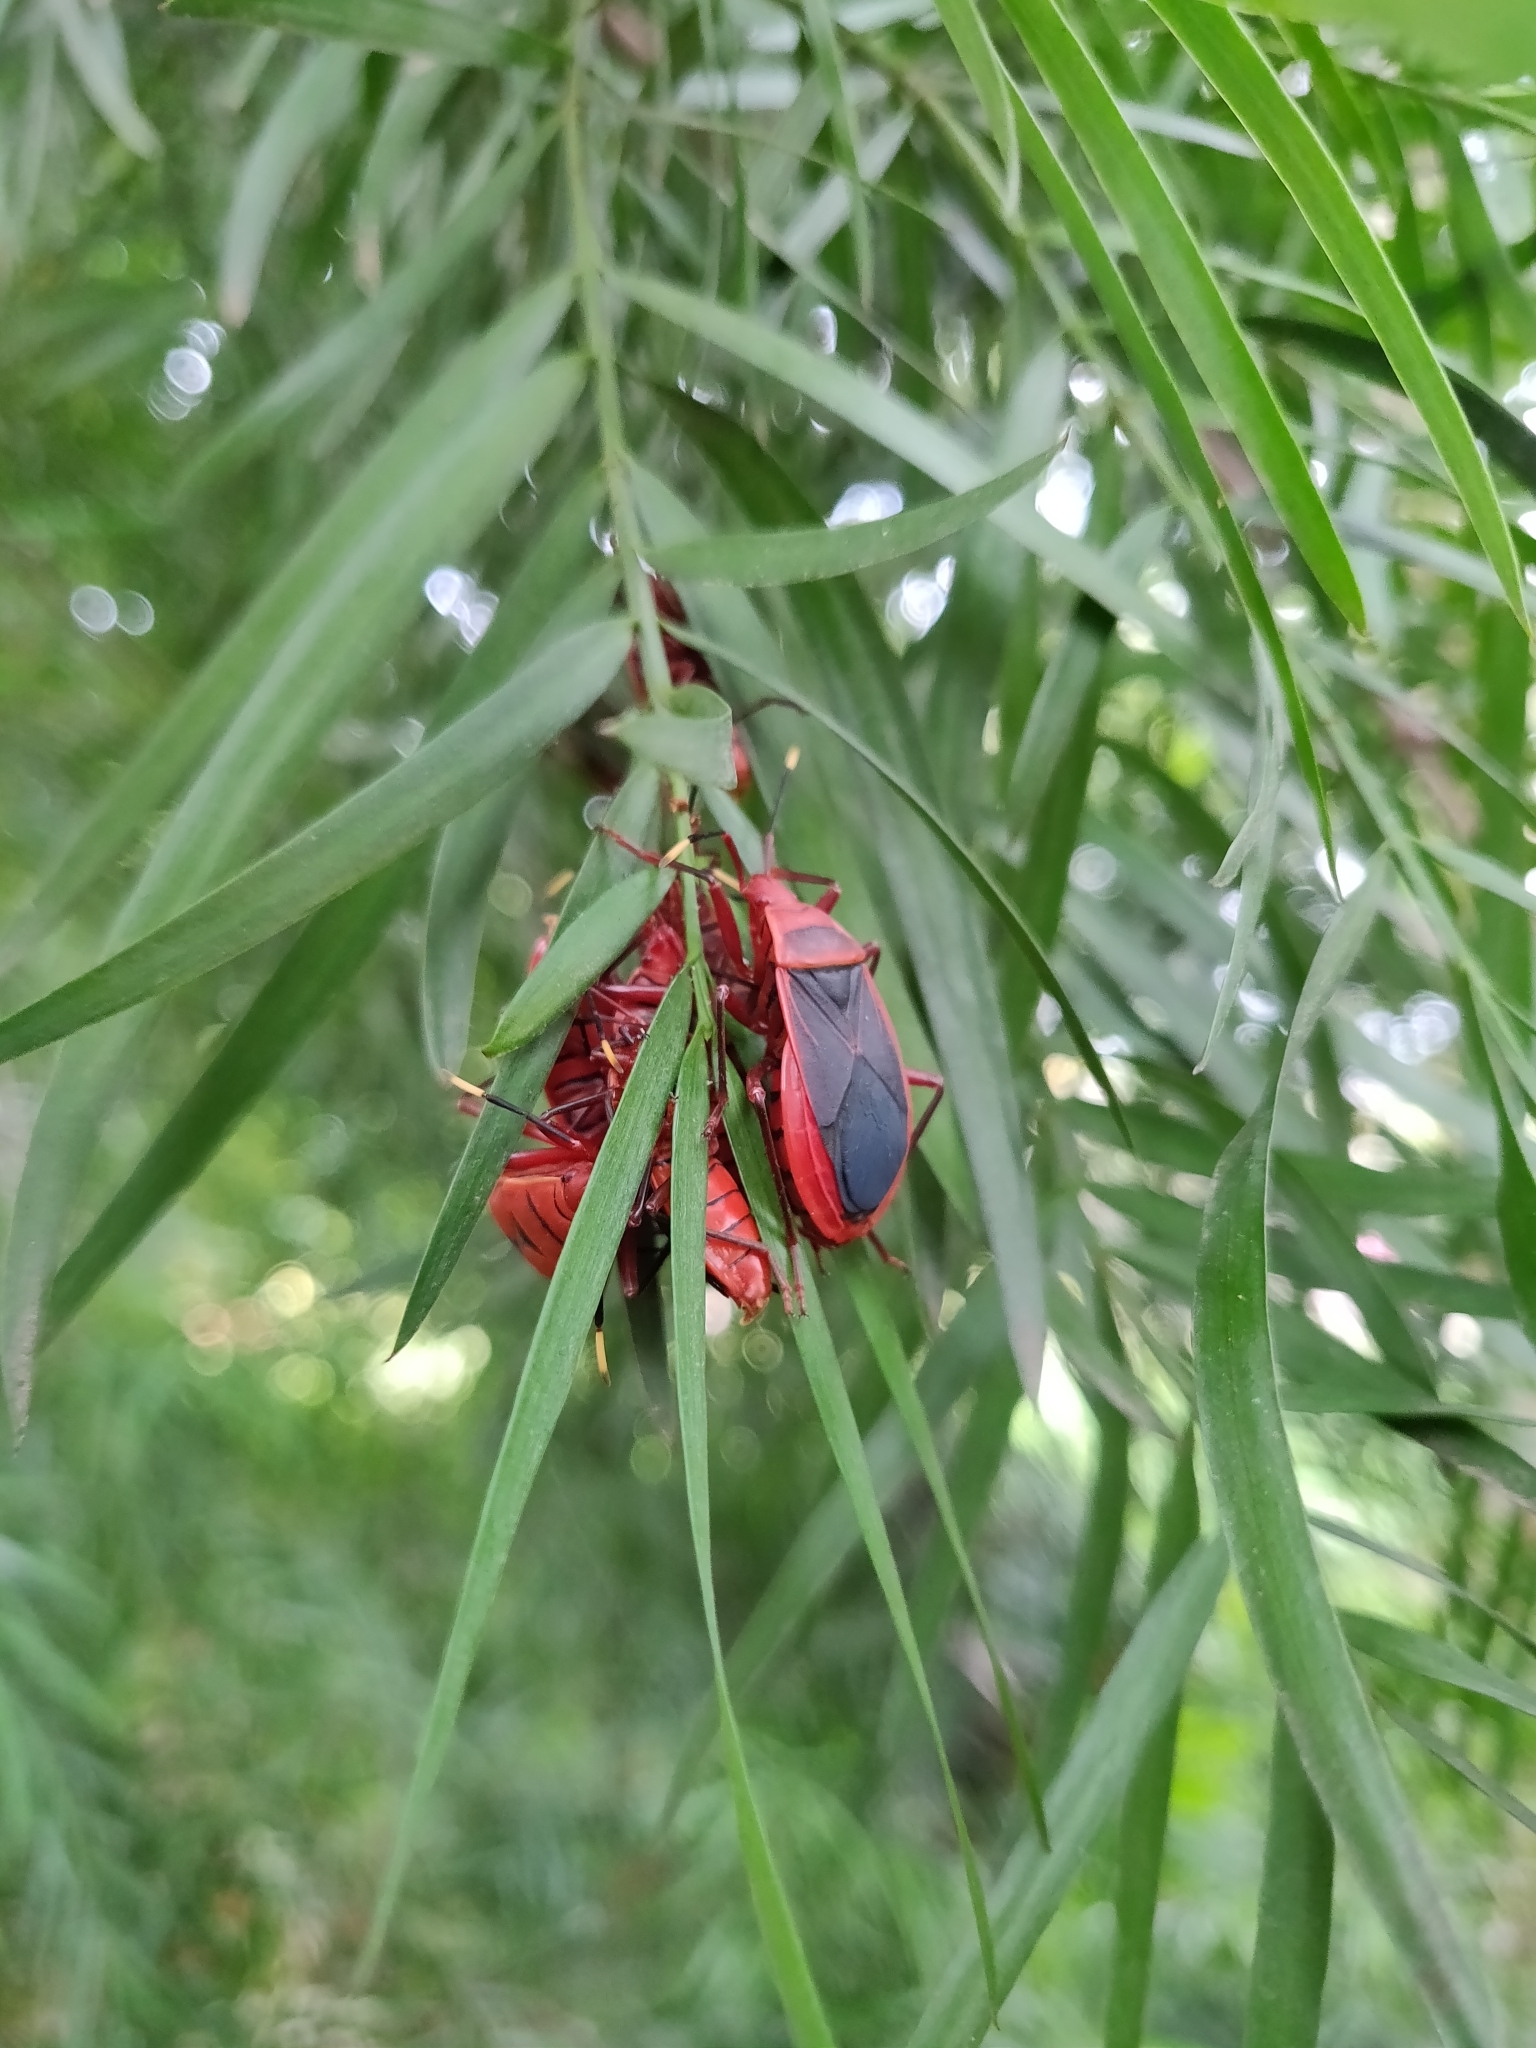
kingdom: Animalia
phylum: Arthropoda
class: Insecta
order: Hemiptera
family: Pyrrhocoridae
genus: Probergrothius
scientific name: Probergrothius
